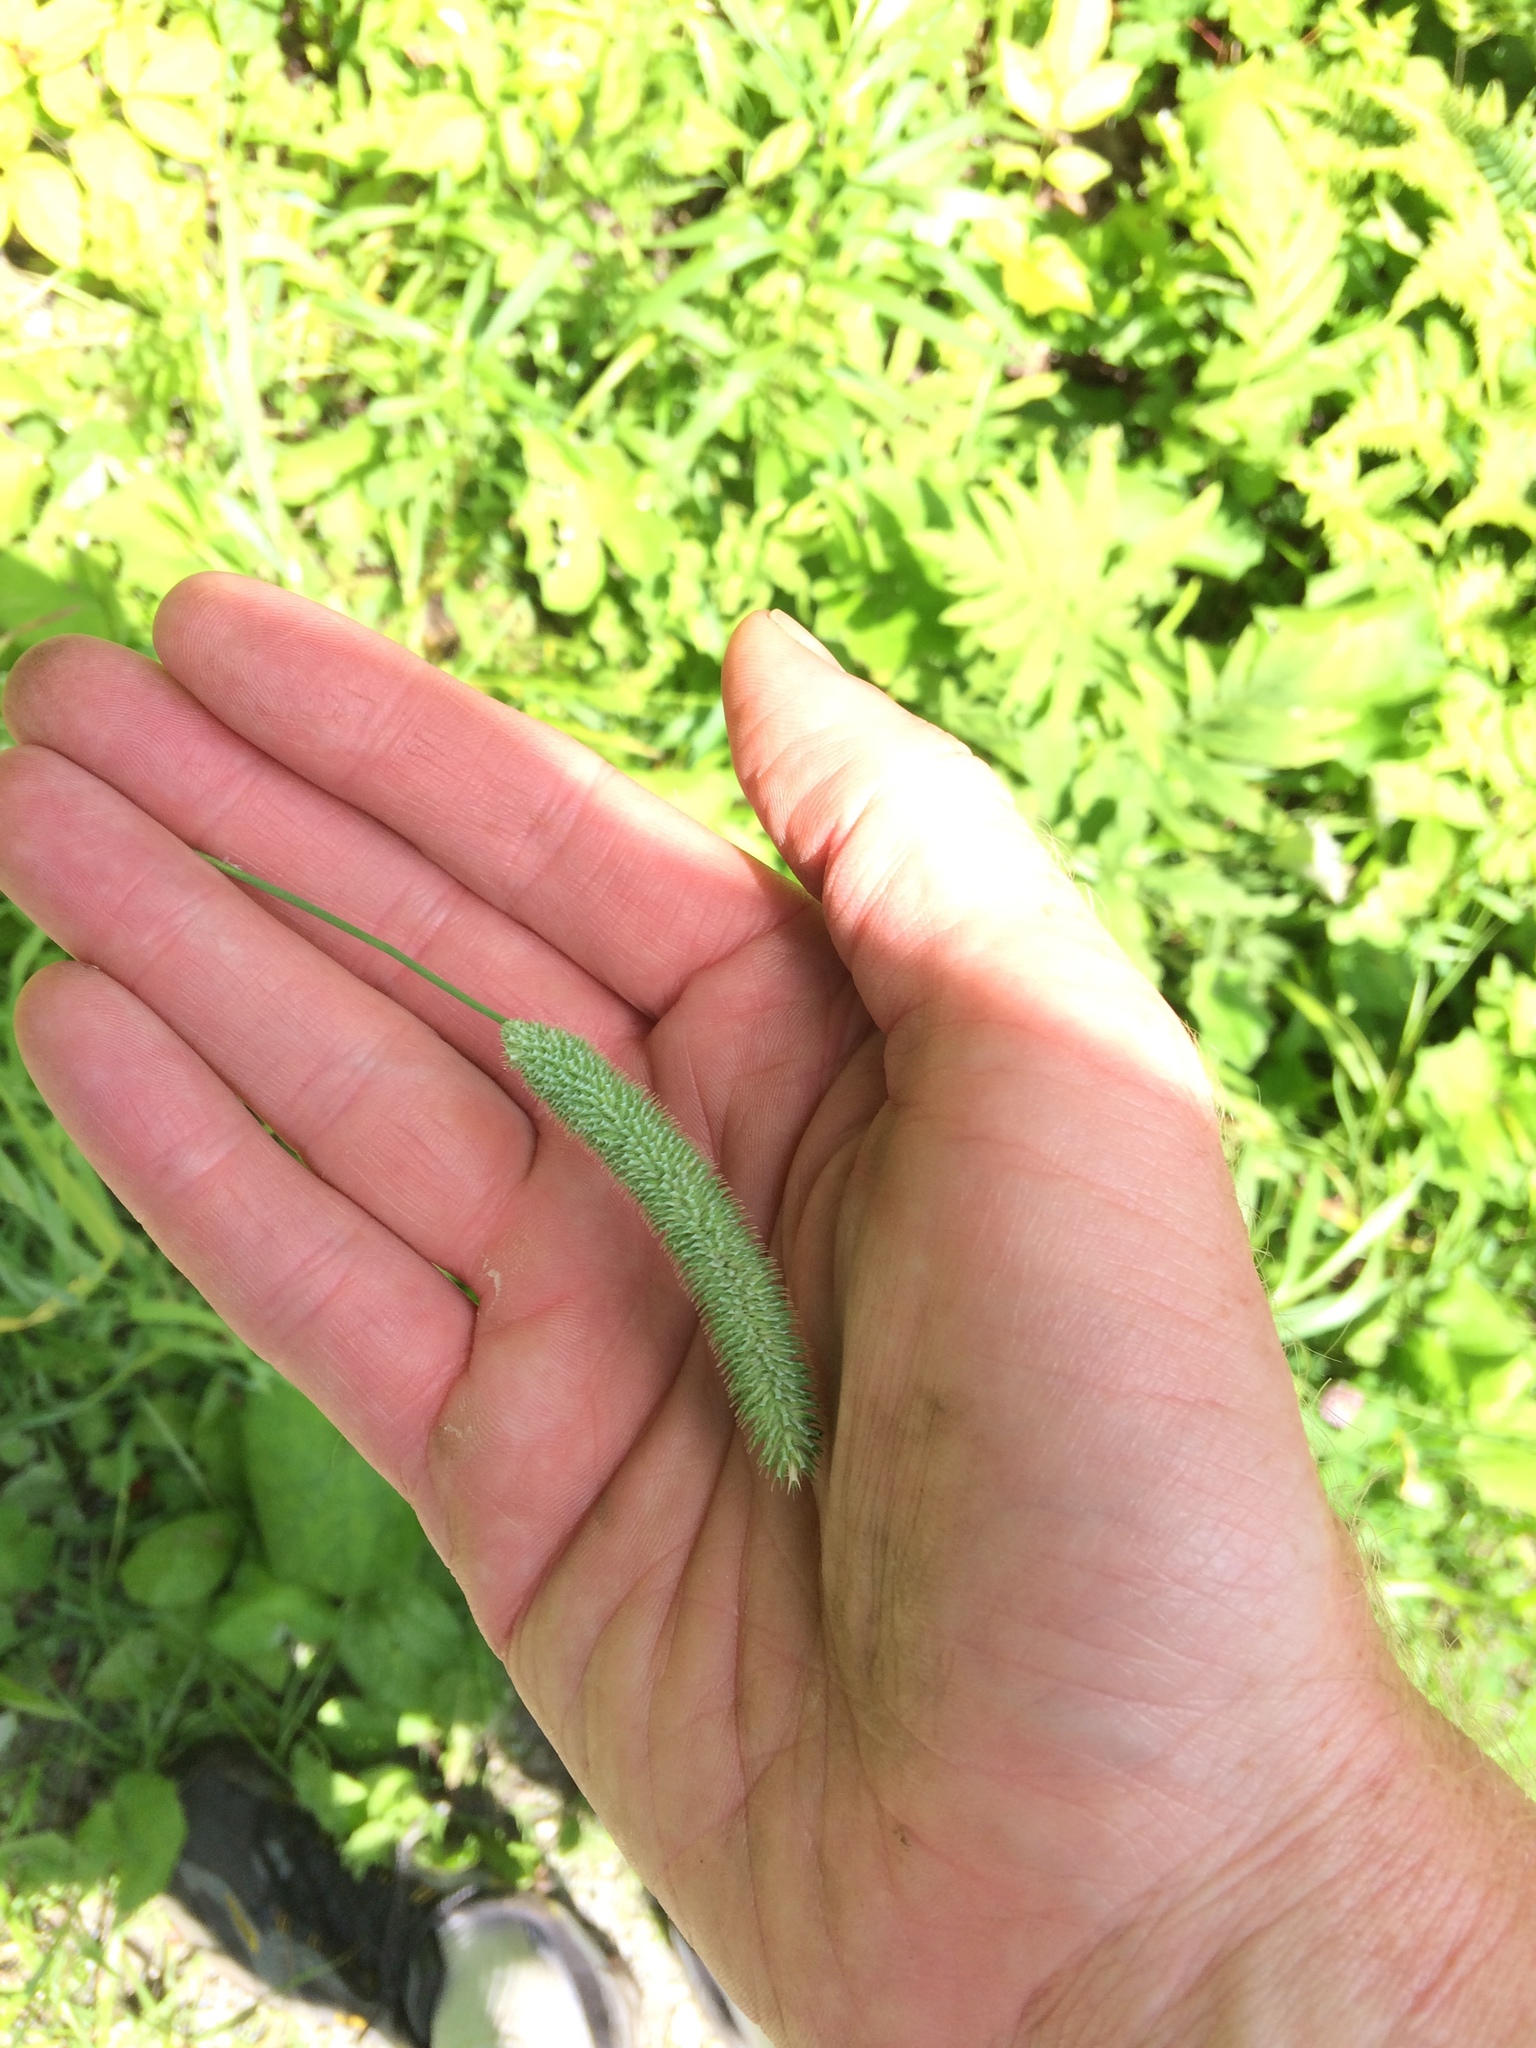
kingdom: Plantae
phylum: Tracheophyta
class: Liliopsida
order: Poales
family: Poaceae
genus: Phleum
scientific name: Phleum pratense
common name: Timothy grass
